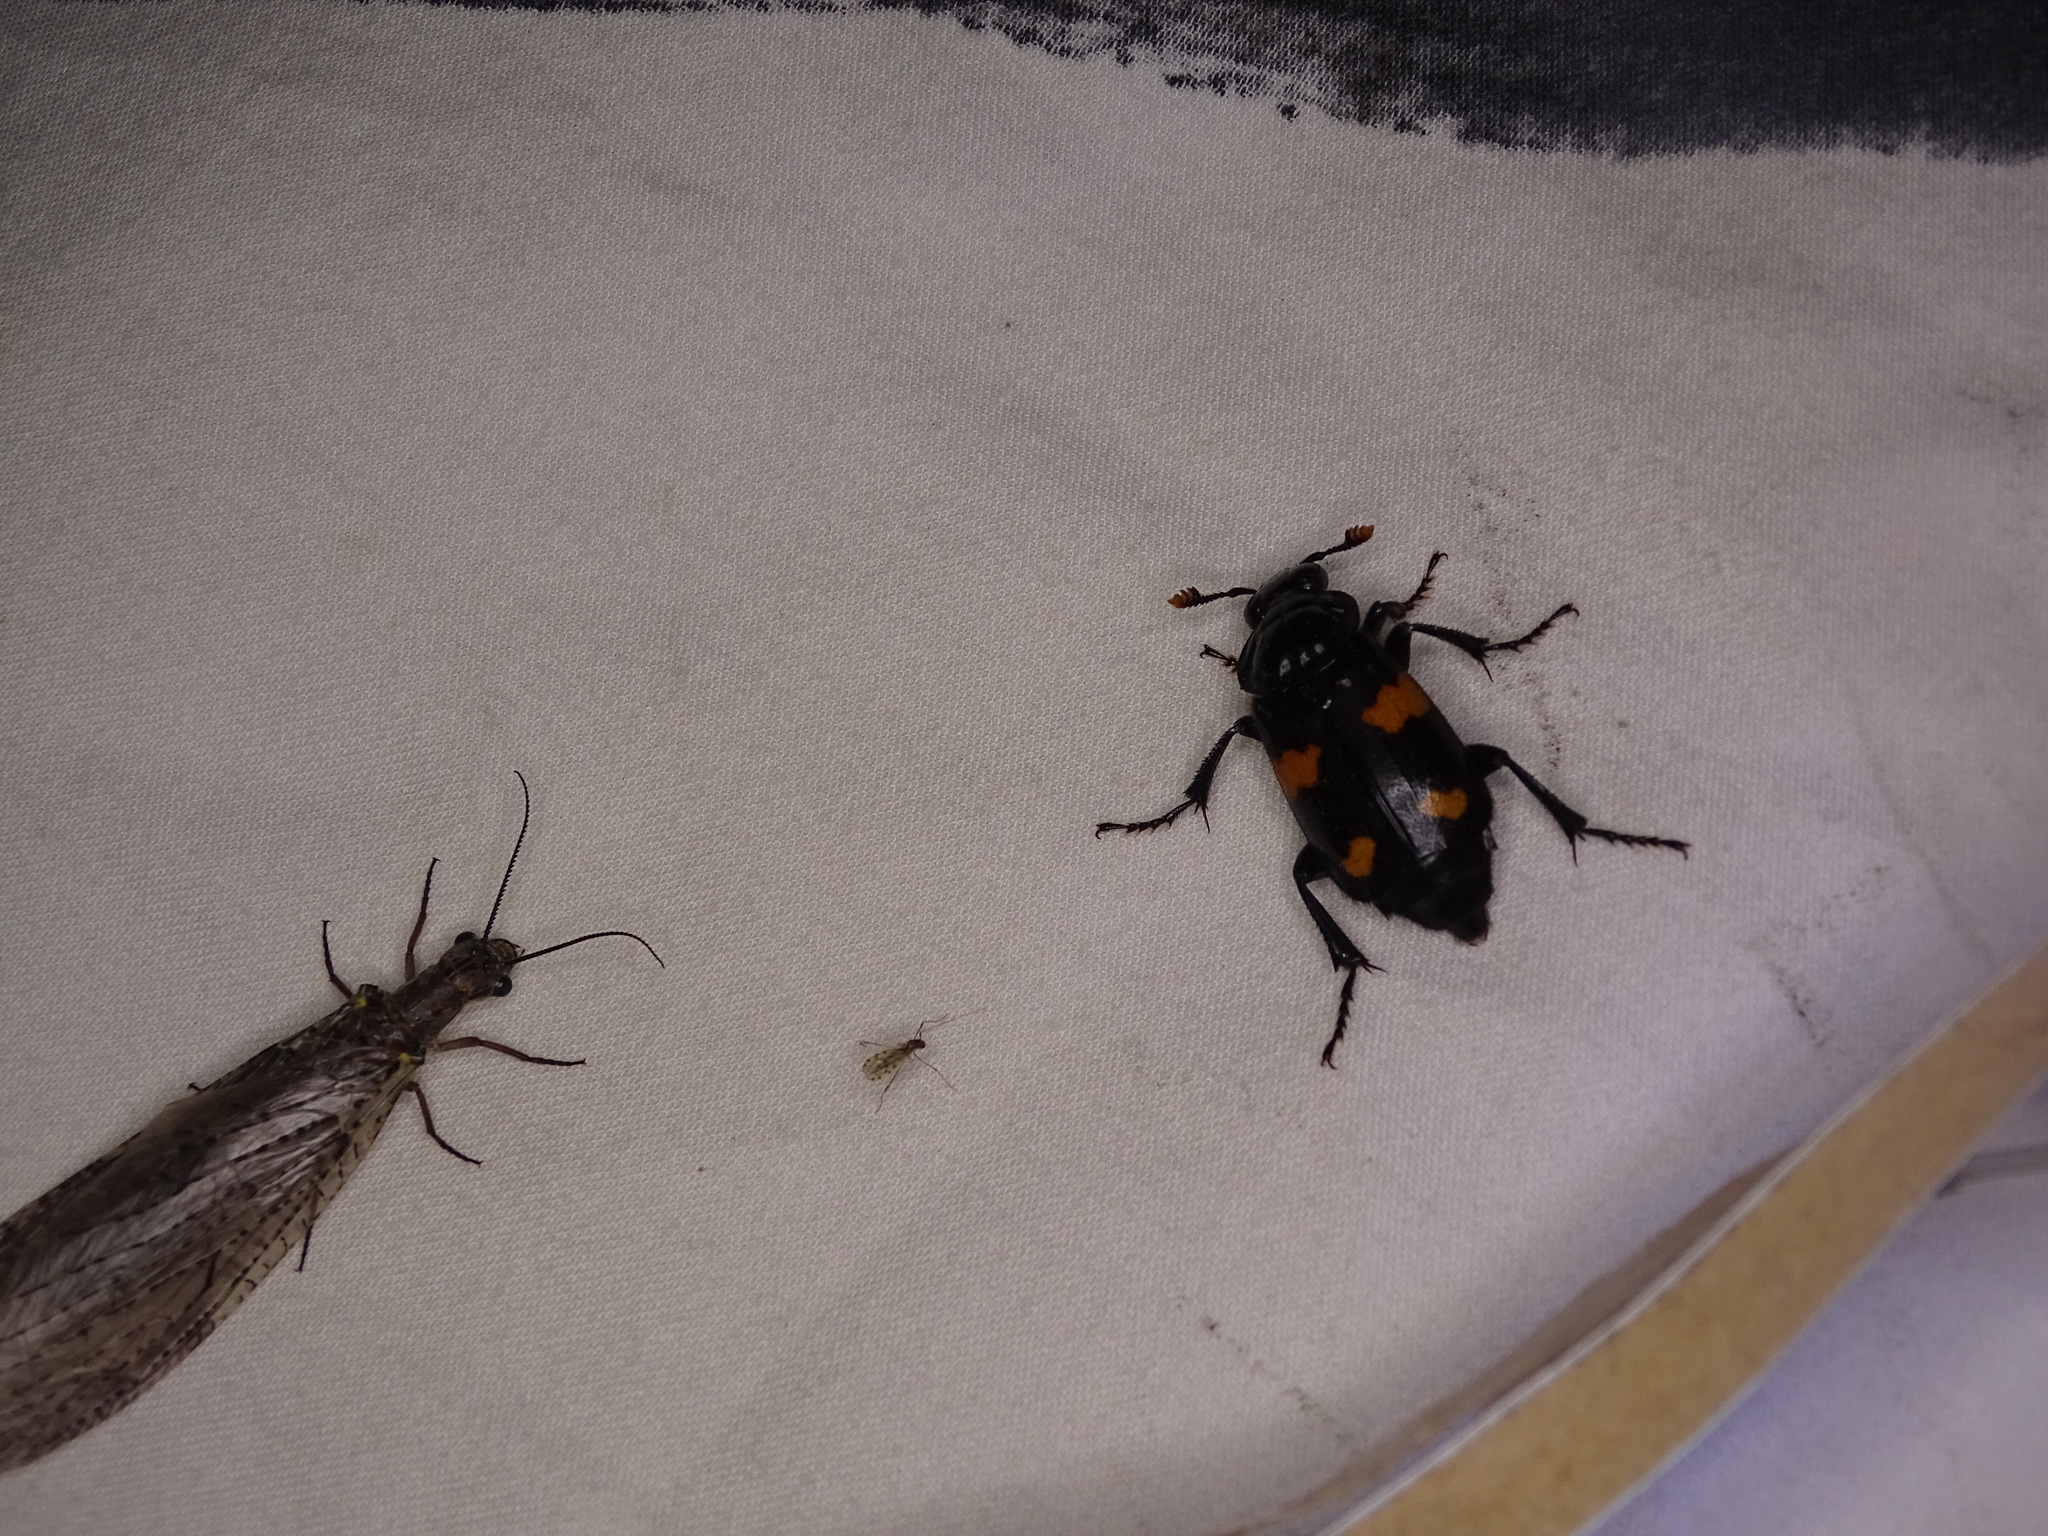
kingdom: Animalia
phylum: Arthropoda
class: Insecta
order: Coleoptera
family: Staphylinidae
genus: Nicrophorus
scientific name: Nicrophorus orbicollis
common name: Roundneck sexton beetle
